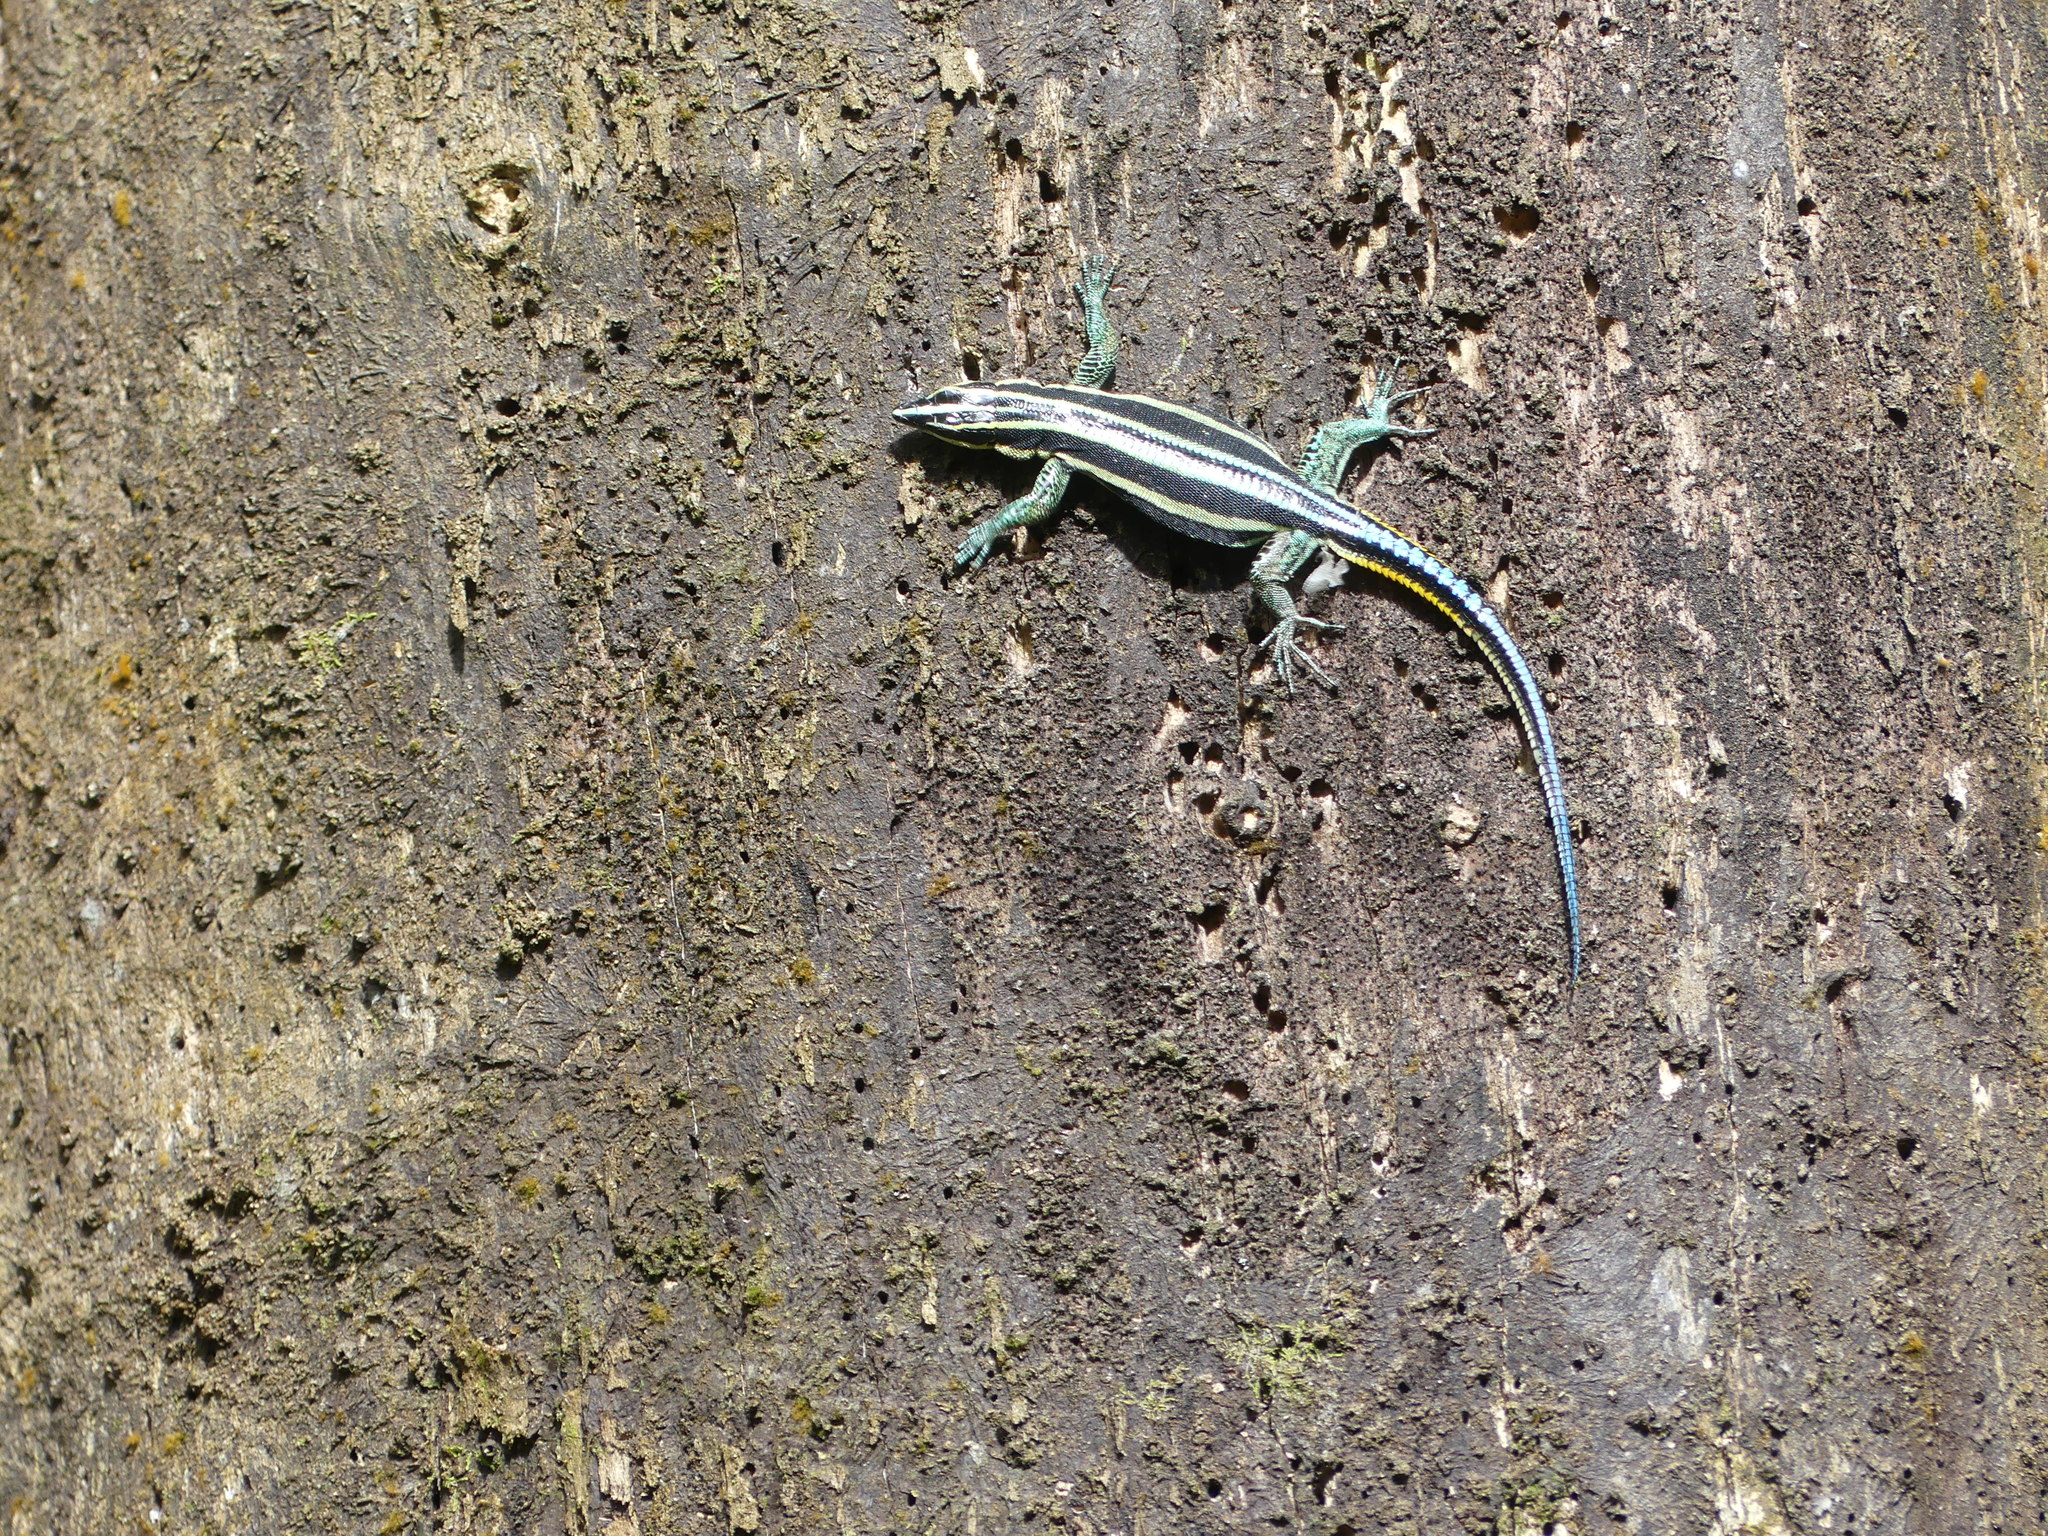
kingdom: Animalia
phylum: Chordata
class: Squamata
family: Lacertidae
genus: Holaspis
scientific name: Holaspis laevis
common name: Eastern serrate-toed tree lizard
